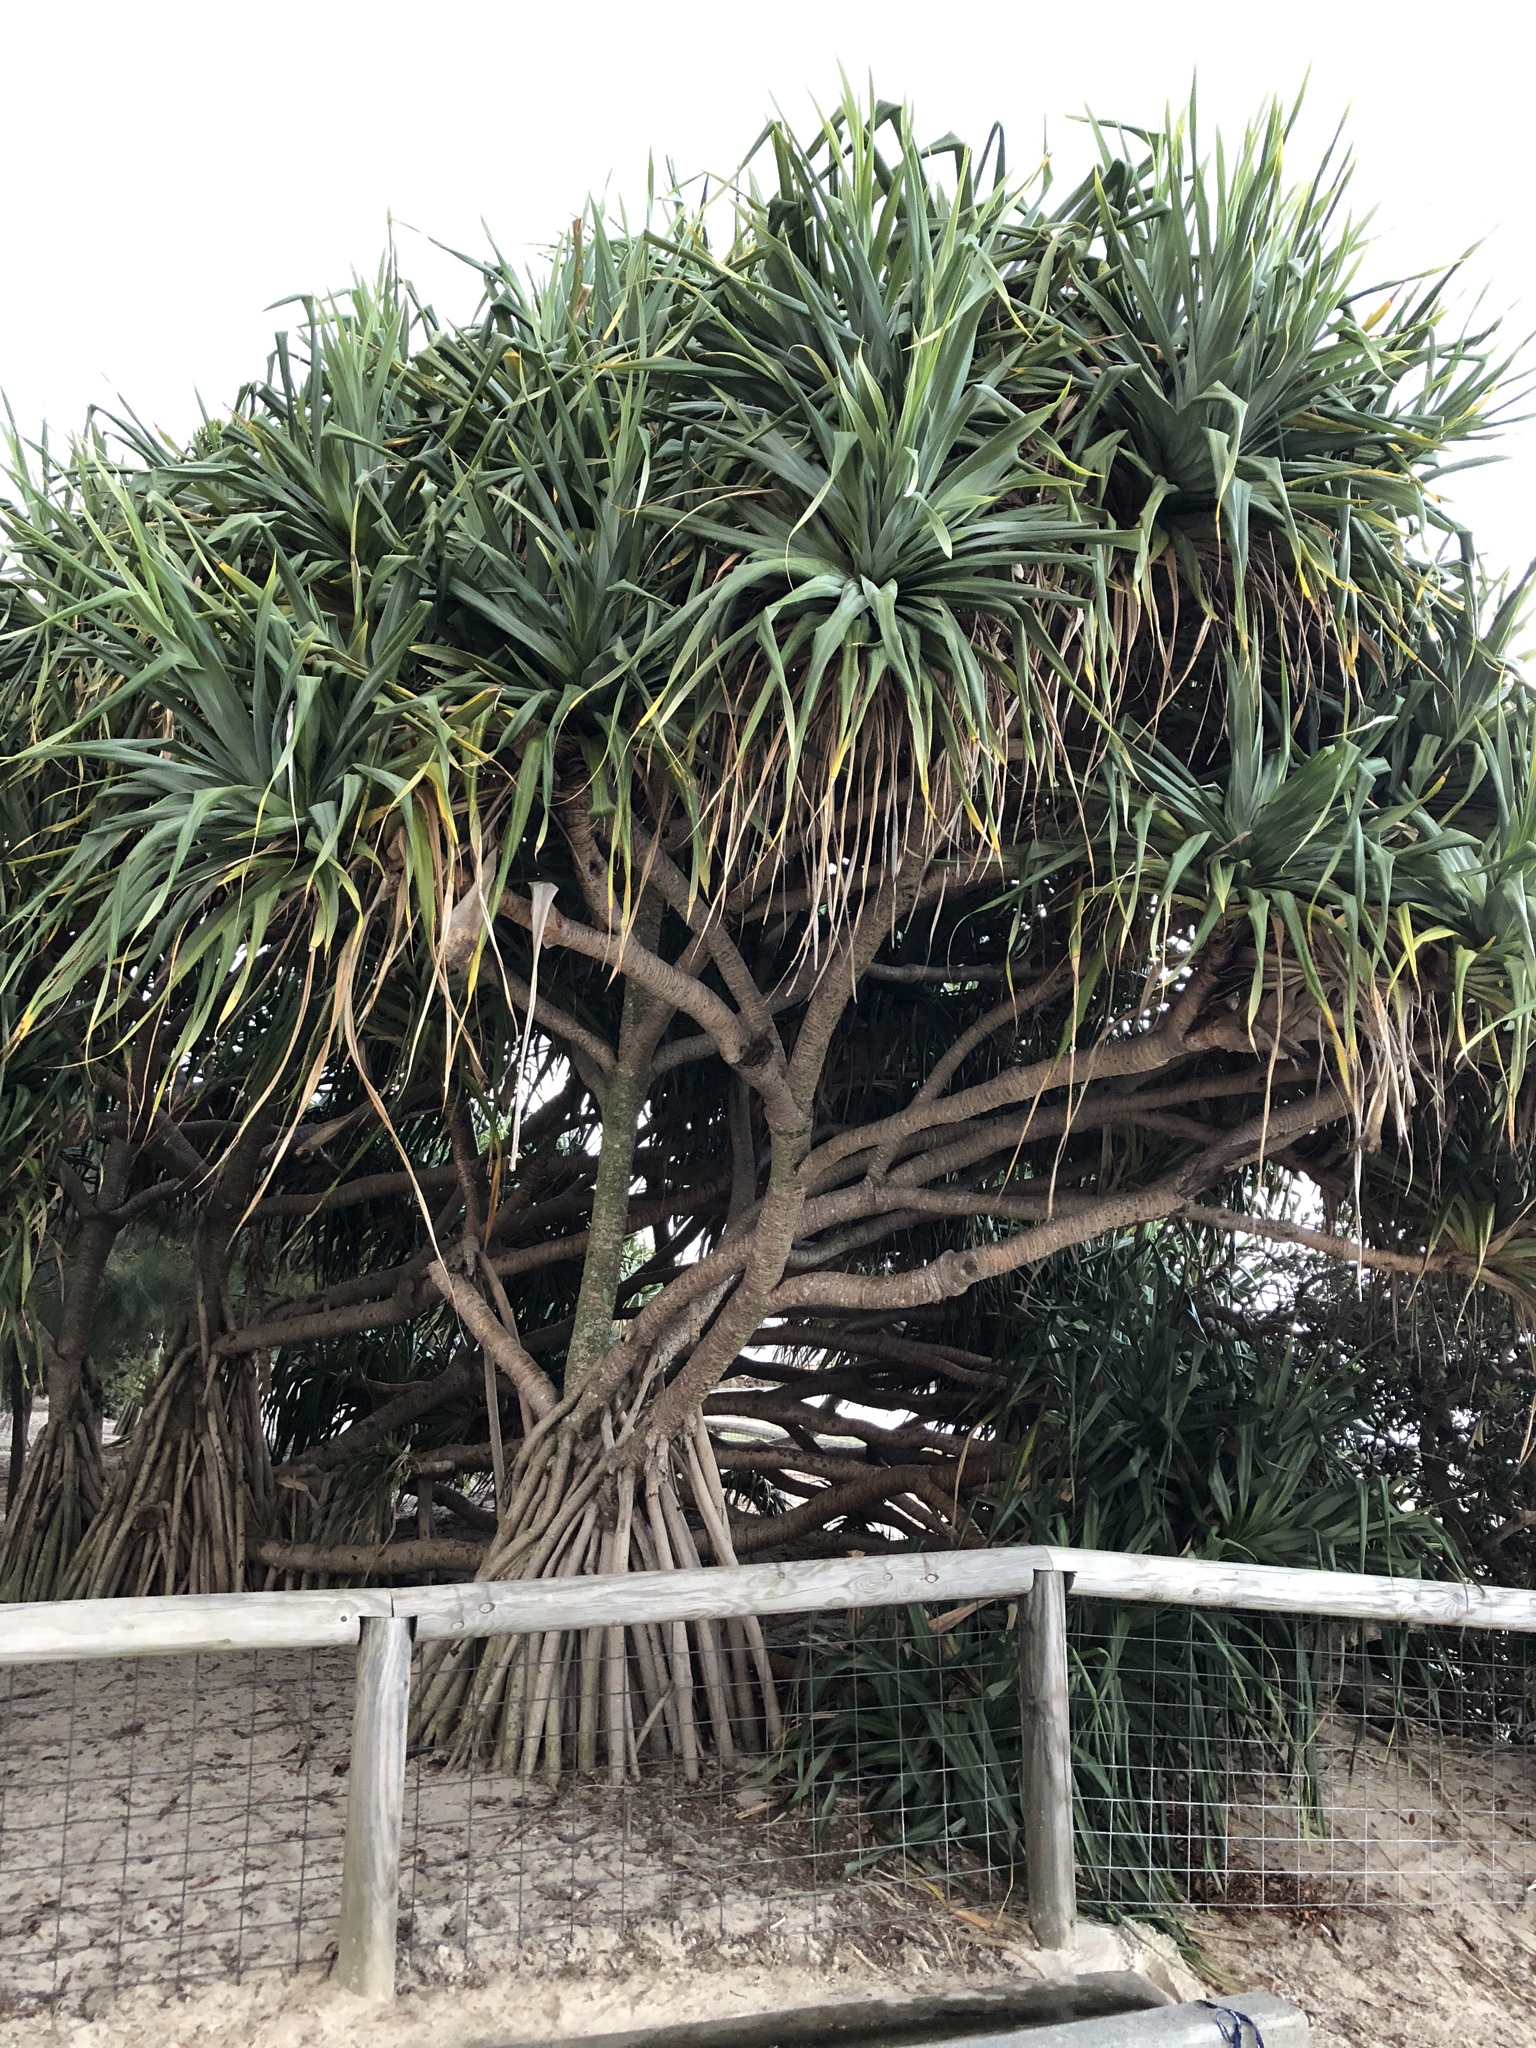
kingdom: Plantae
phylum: Tracheophyta
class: Liliopsida
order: Pandanales
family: Pandanaceae
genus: Pandanus
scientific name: Pandanus tectorius
